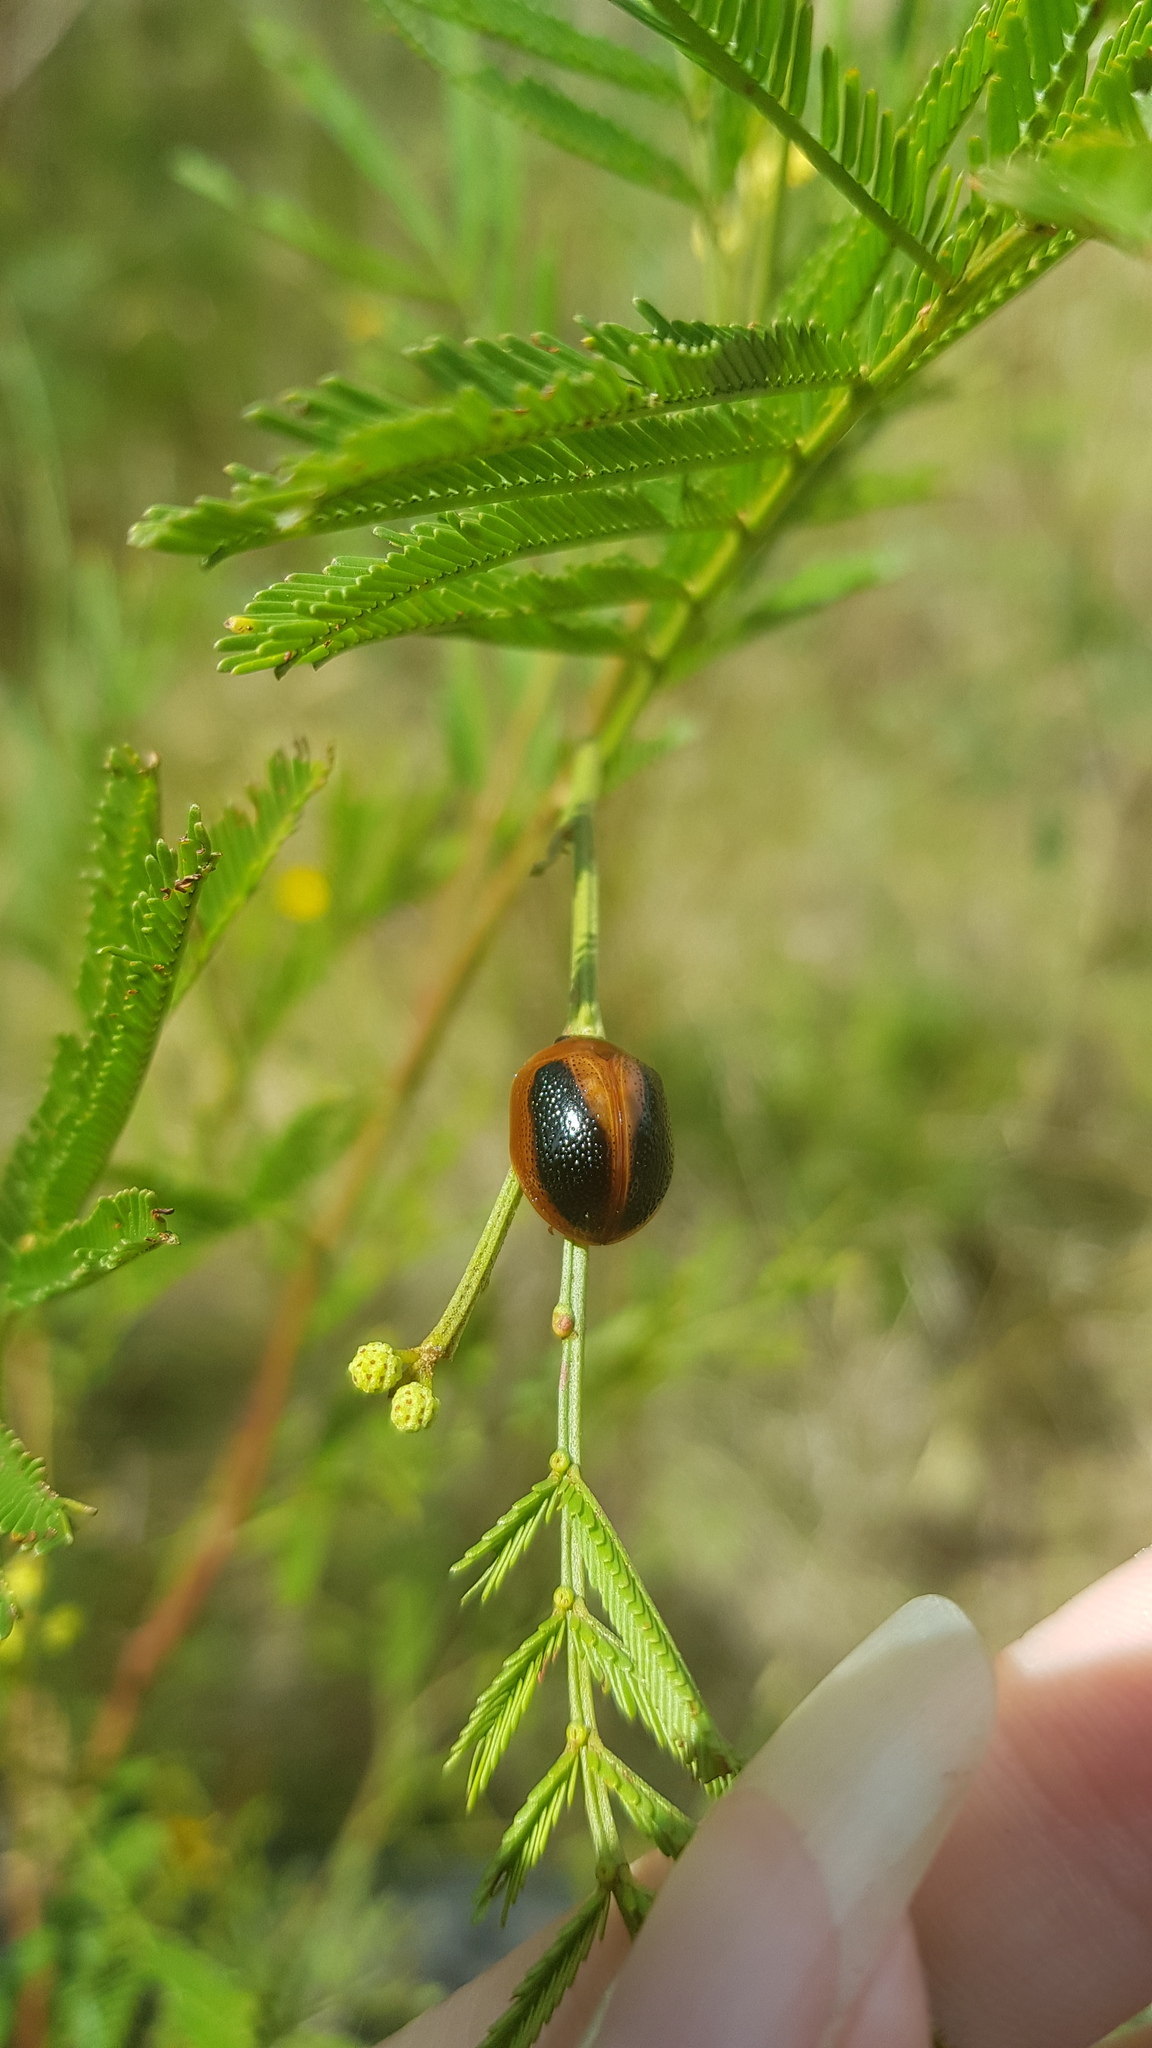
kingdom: Animalia
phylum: Arthropoda
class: Insecta
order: Coleoptera
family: Chrysomelidae
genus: Dicranosterna
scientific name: Dicranosterna
